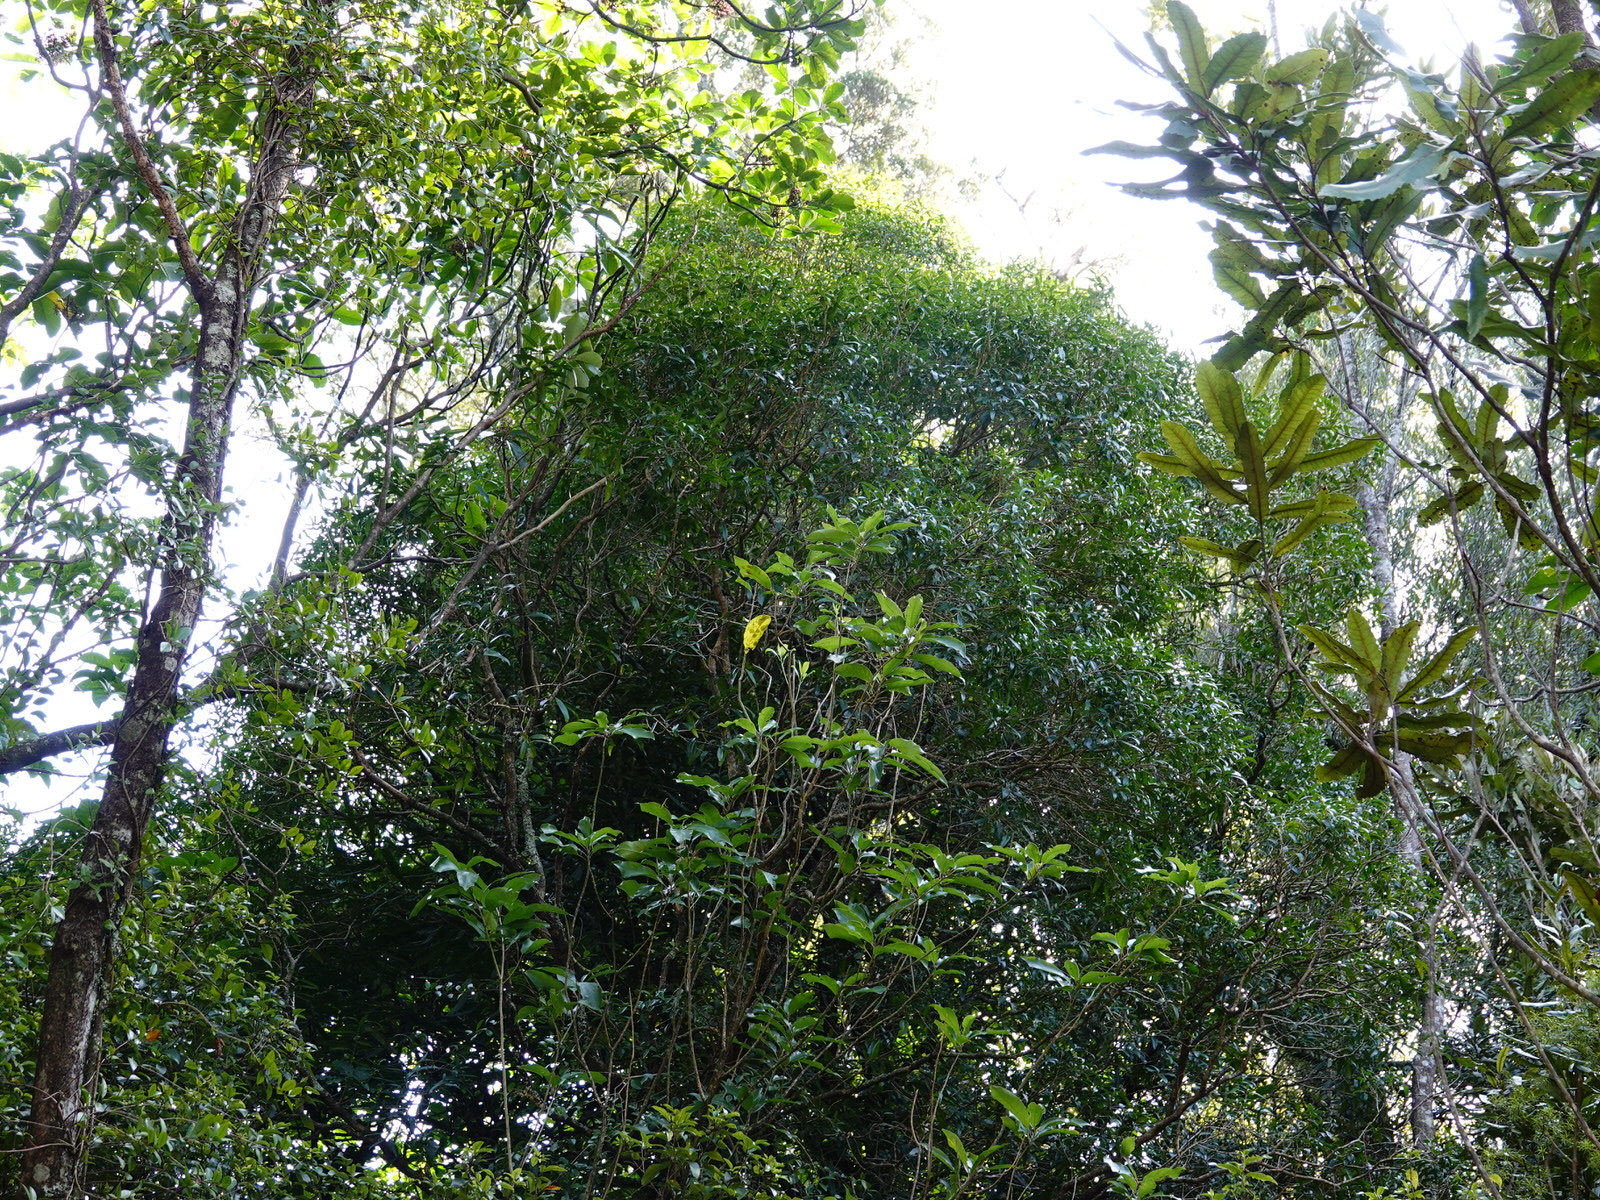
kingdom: Plantae
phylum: Tracheophyta
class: Magnoliopsida
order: Lamiales
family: Oleaceae
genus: Nestegis
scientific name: Nestegis lanceolata
